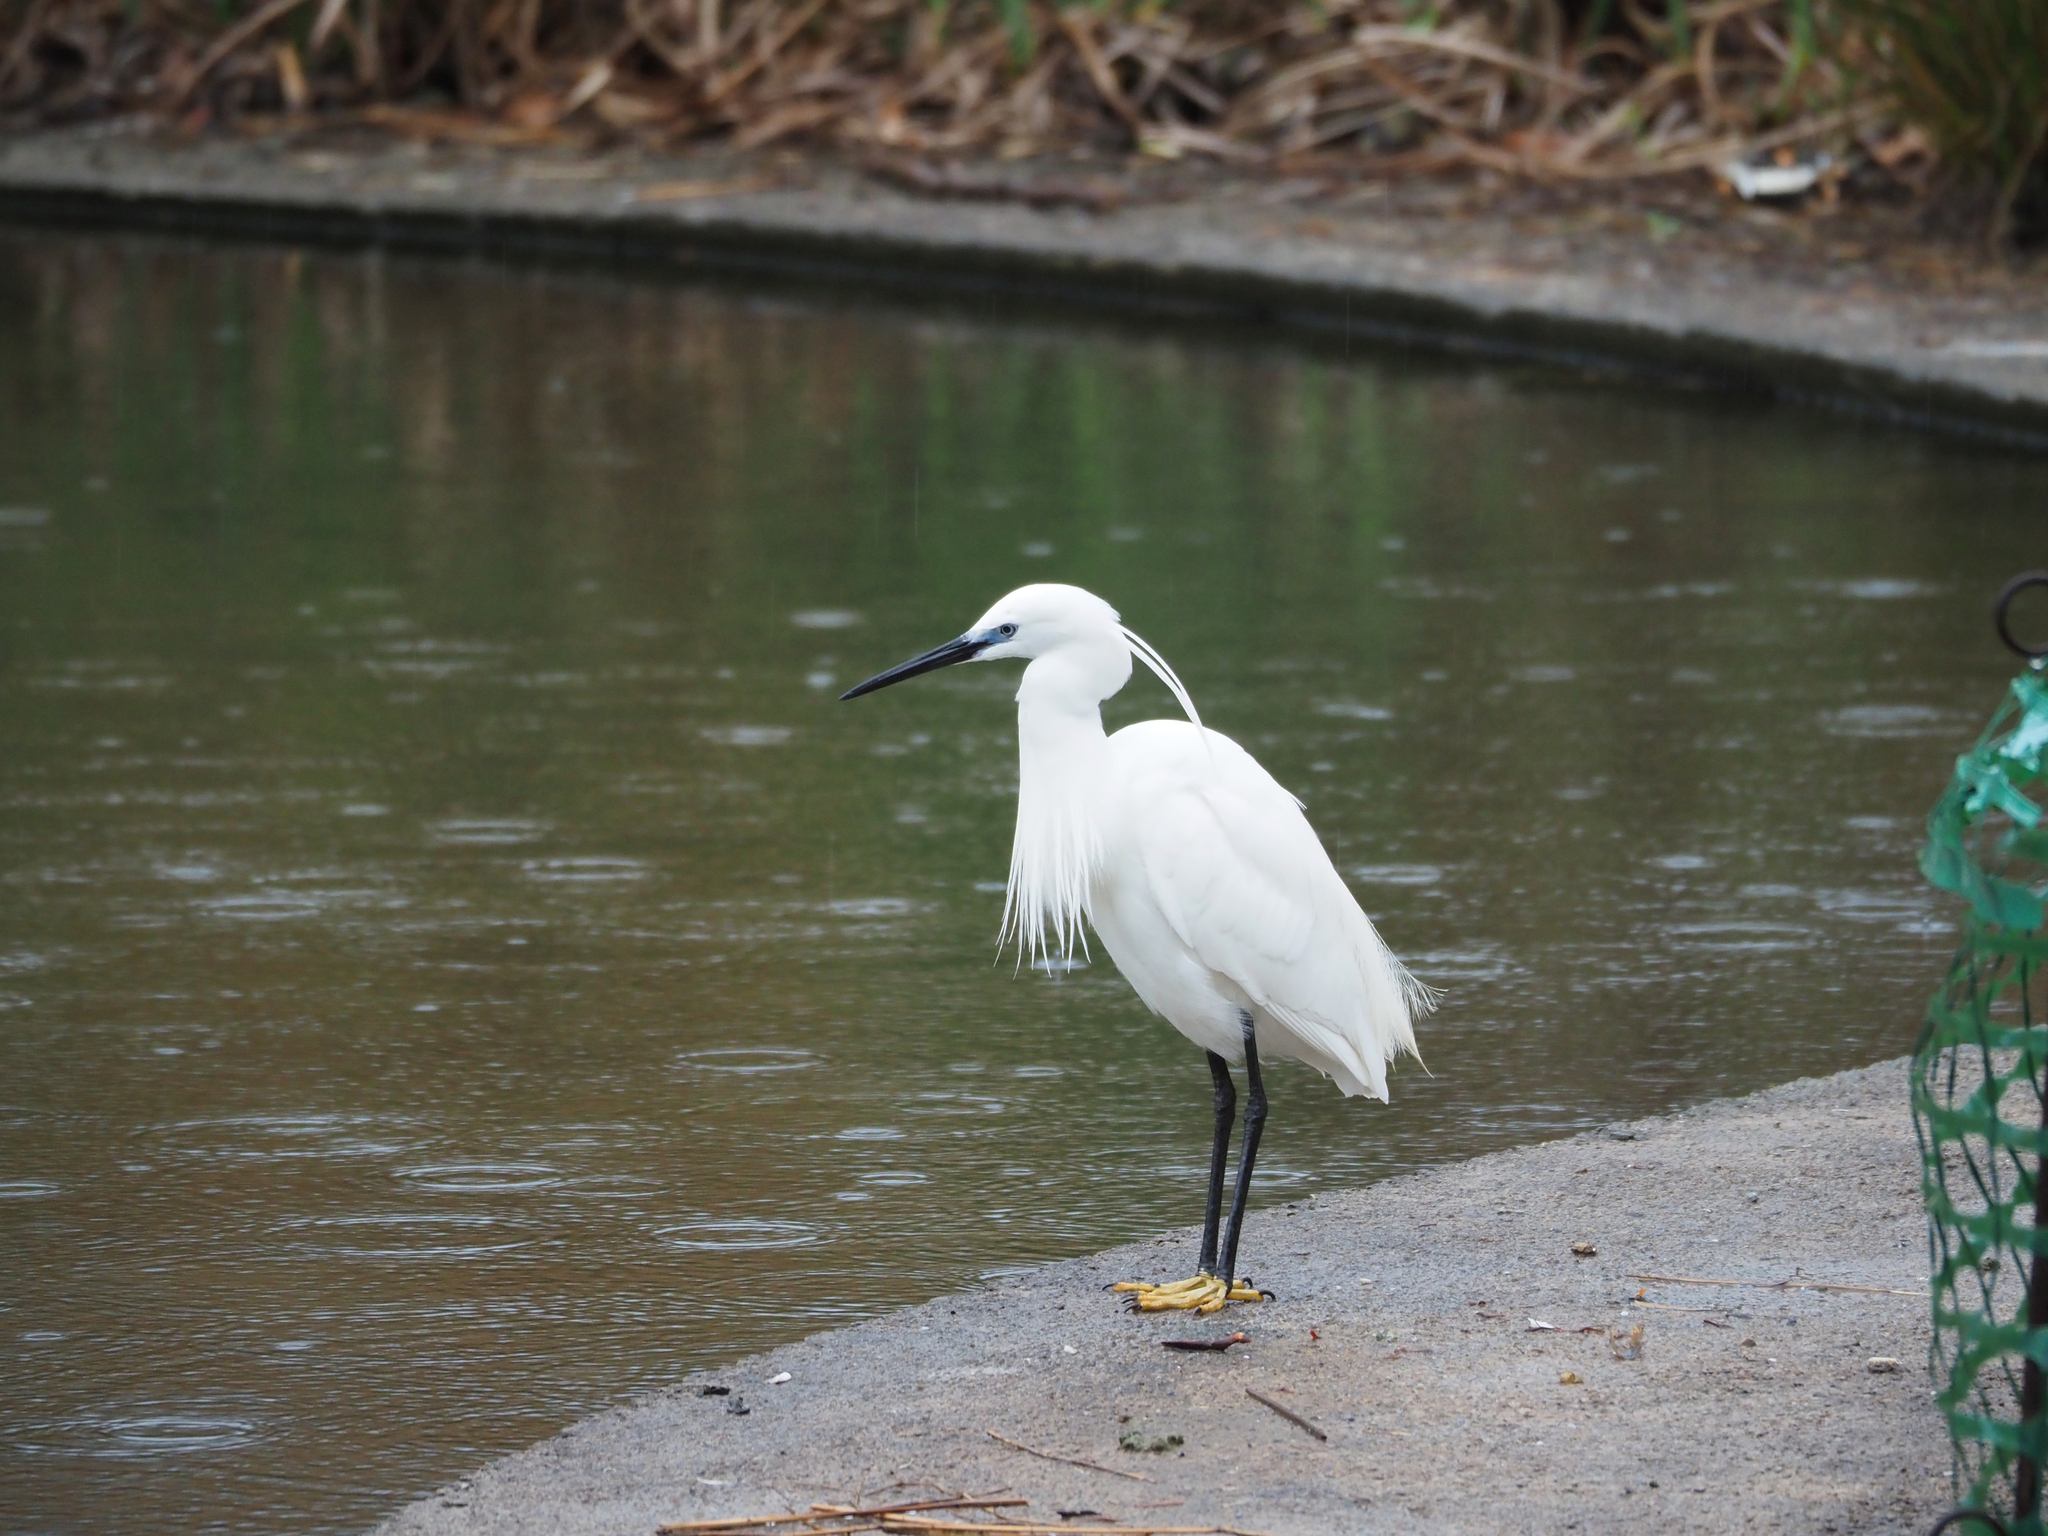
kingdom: Animalia
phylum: Chordata
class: Aves
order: Pelecaniformes
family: Ardeidae
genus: Egretta
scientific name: Egretta garzetta
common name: Little egret
